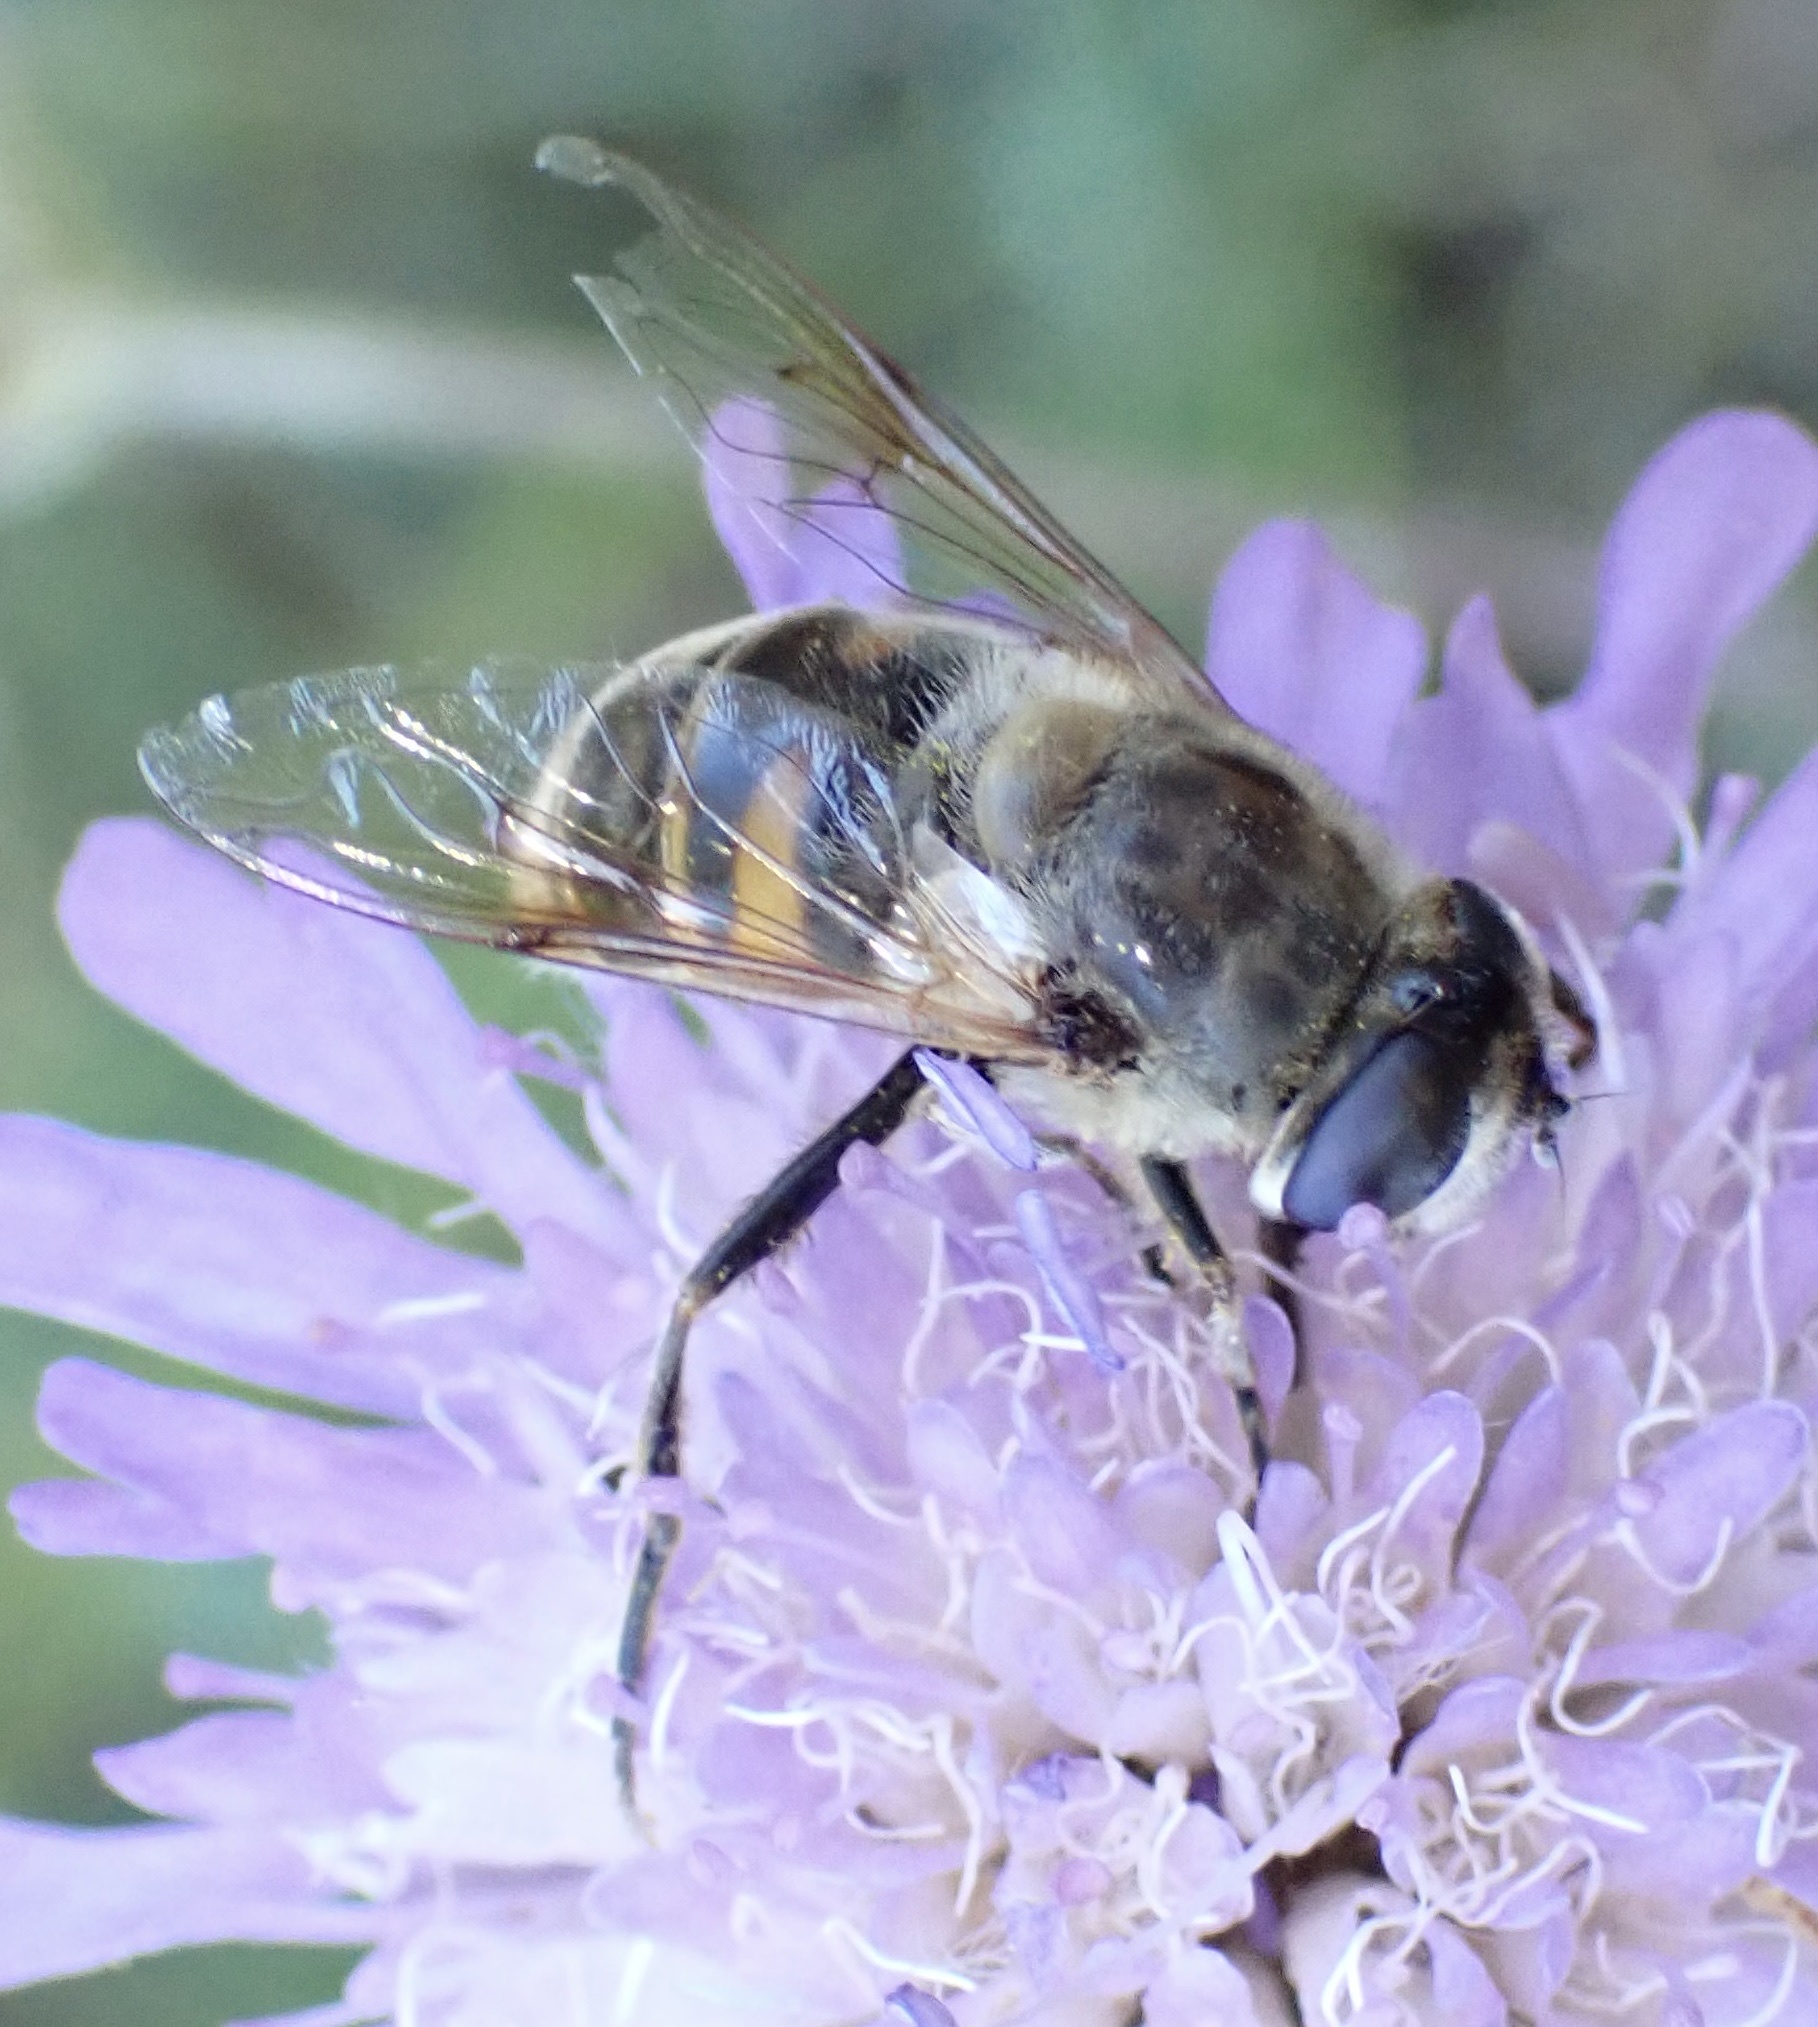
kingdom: Animalia
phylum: Arthropoda
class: Insecta
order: Diptera
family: Syrphidae
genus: Eristalis
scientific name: Eristalis tenax
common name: Drone fly
